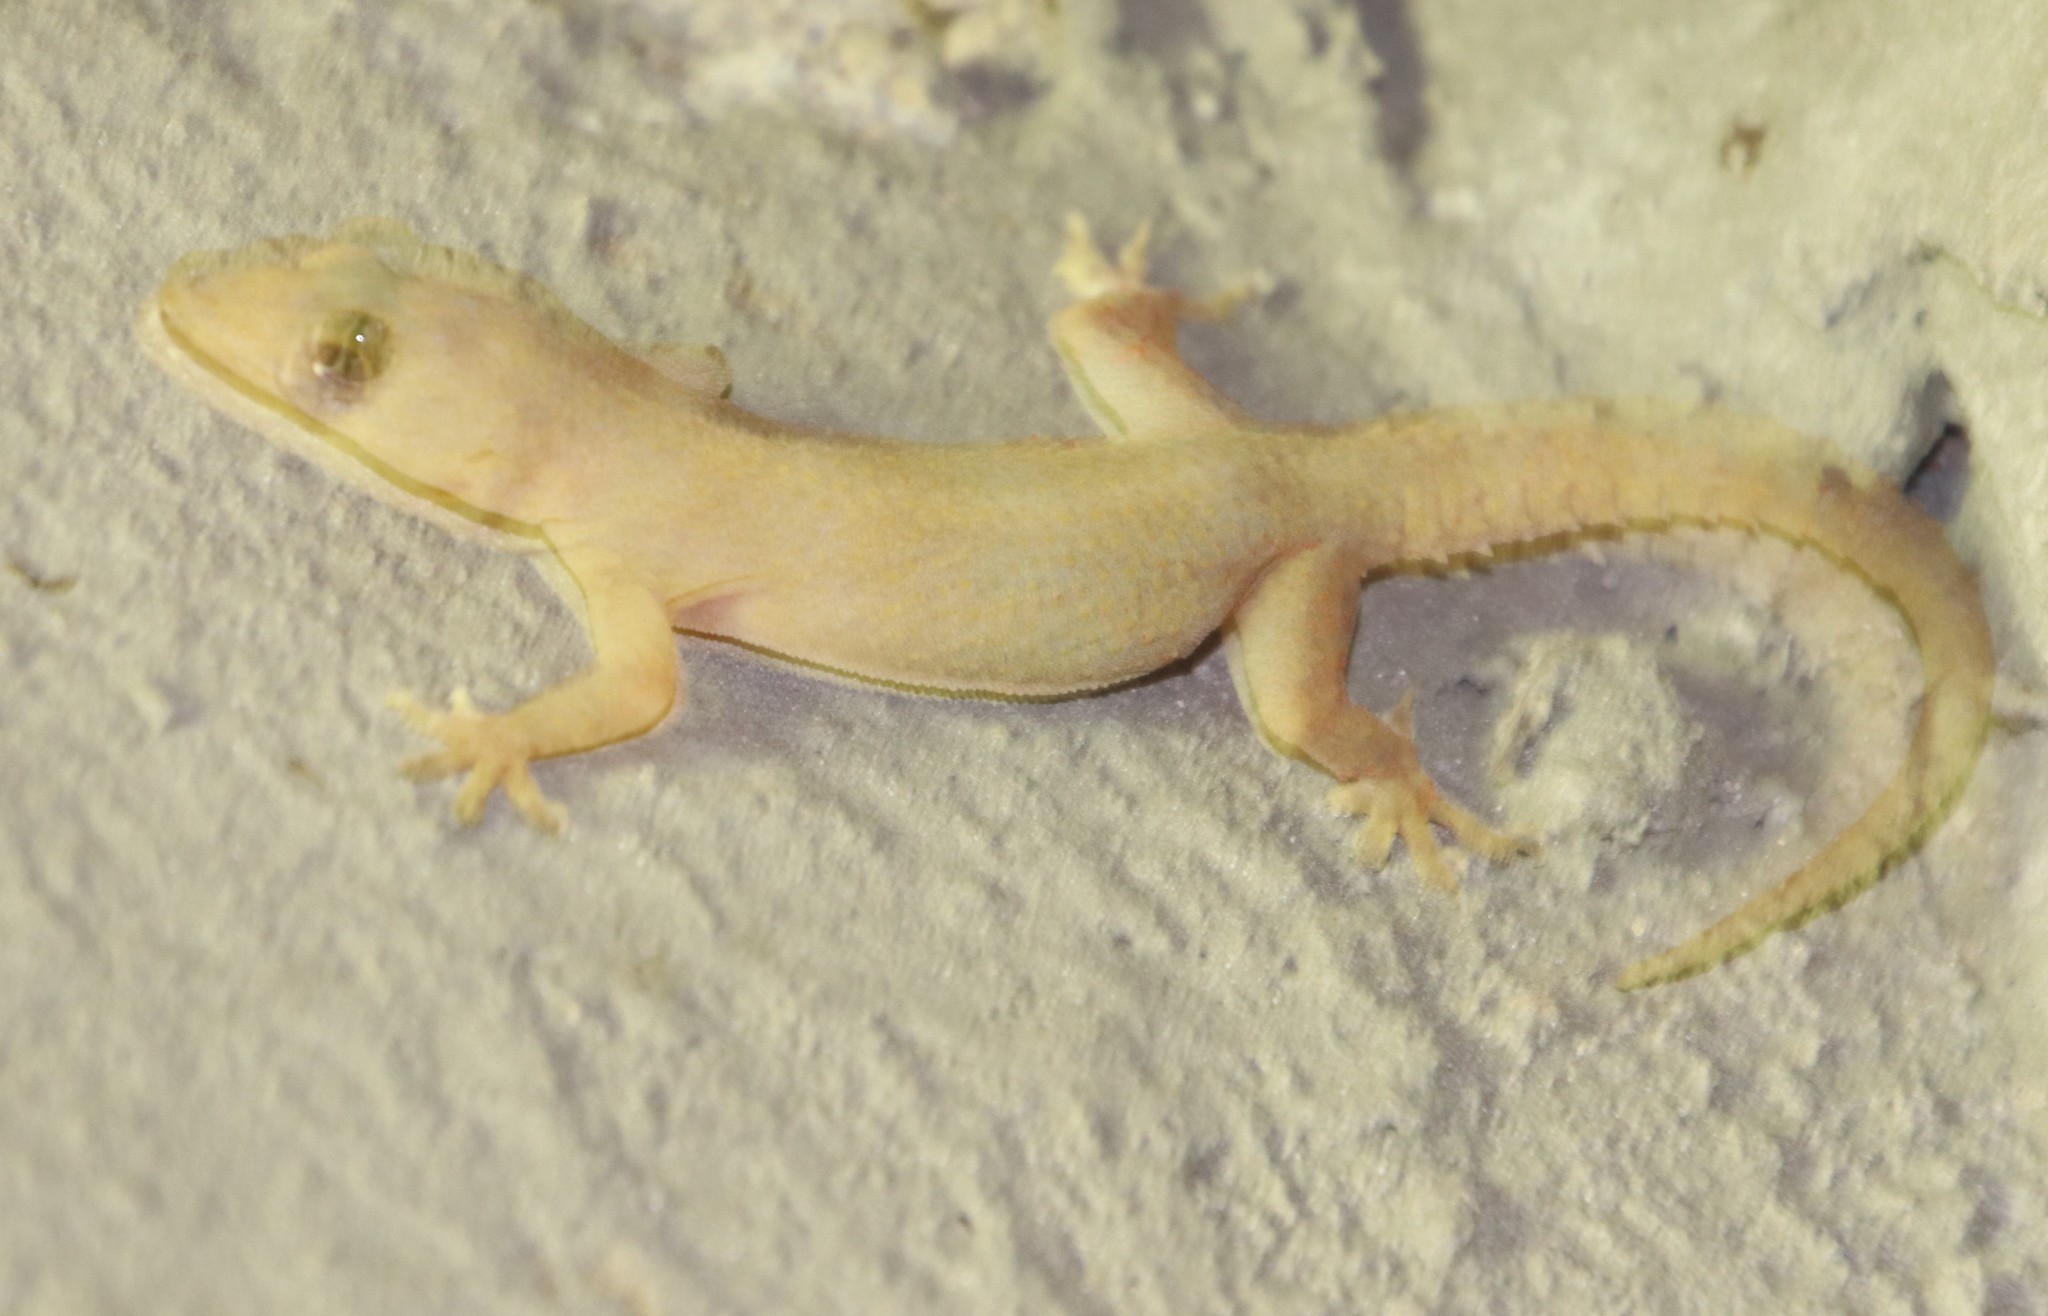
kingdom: Animalia
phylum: Chordata
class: Squamata
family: Gekkonidae
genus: Hemidactylus
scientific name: Hemidactylus mabouia
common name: House gecko
